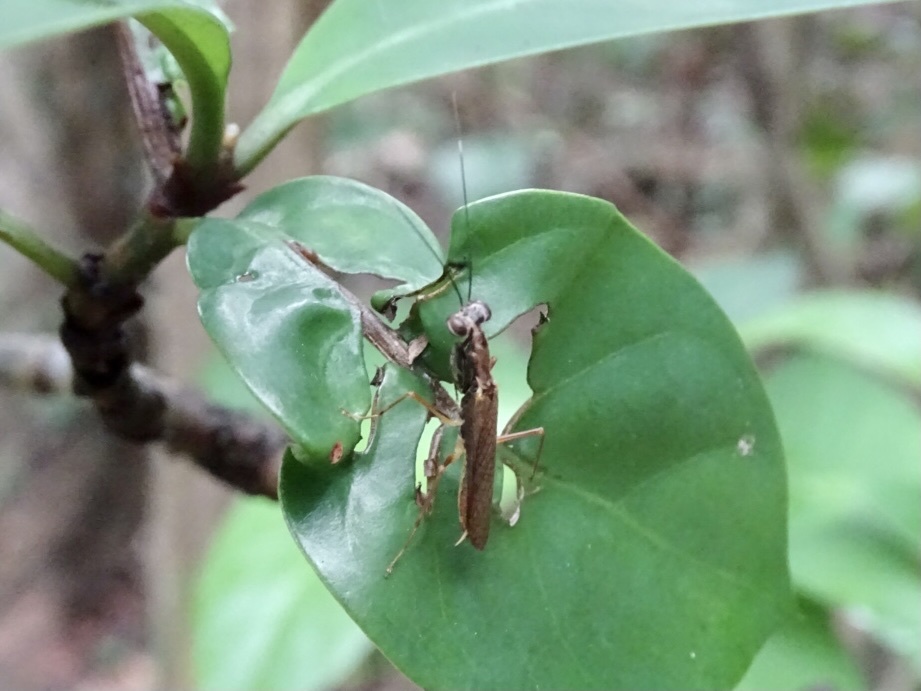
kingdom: Animalia
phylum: Arthropoda
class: Insecta
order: Mantodea
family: Gonypetidae
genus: Spilomantis
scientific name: Spilomantis occipitalis
